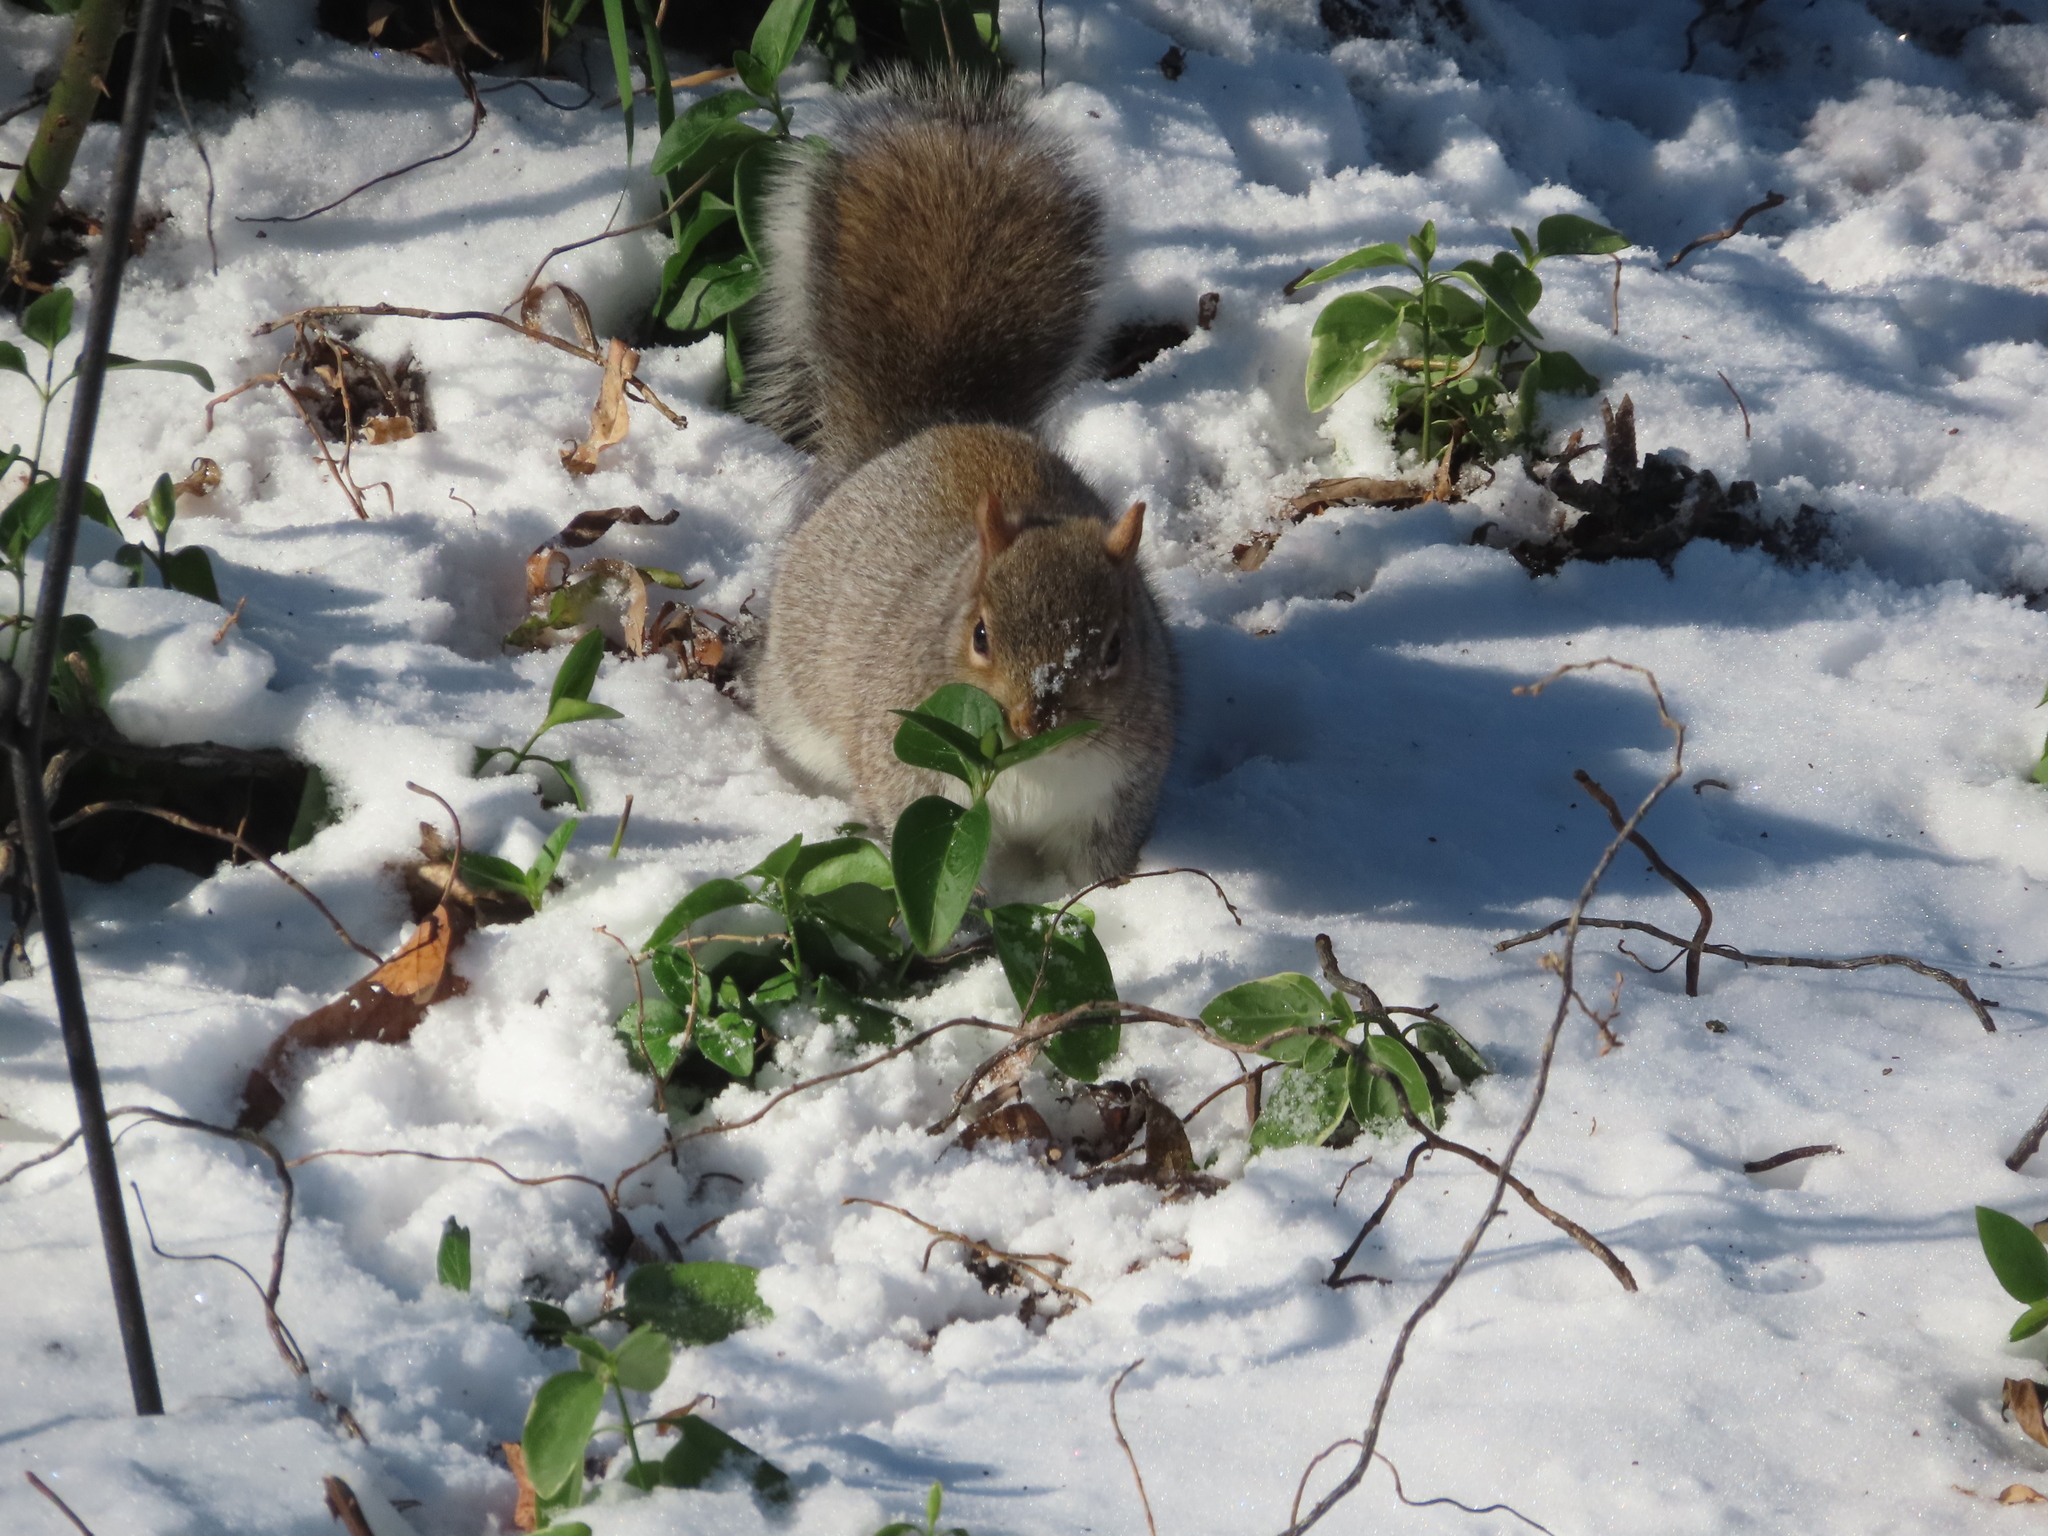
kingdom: Animalia
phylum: Chordata
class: Mammalia
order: Rodentia
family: Sciuridae
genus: Sciurus
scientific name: Sciurus carolinensis
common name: Eastern gray squirrel
